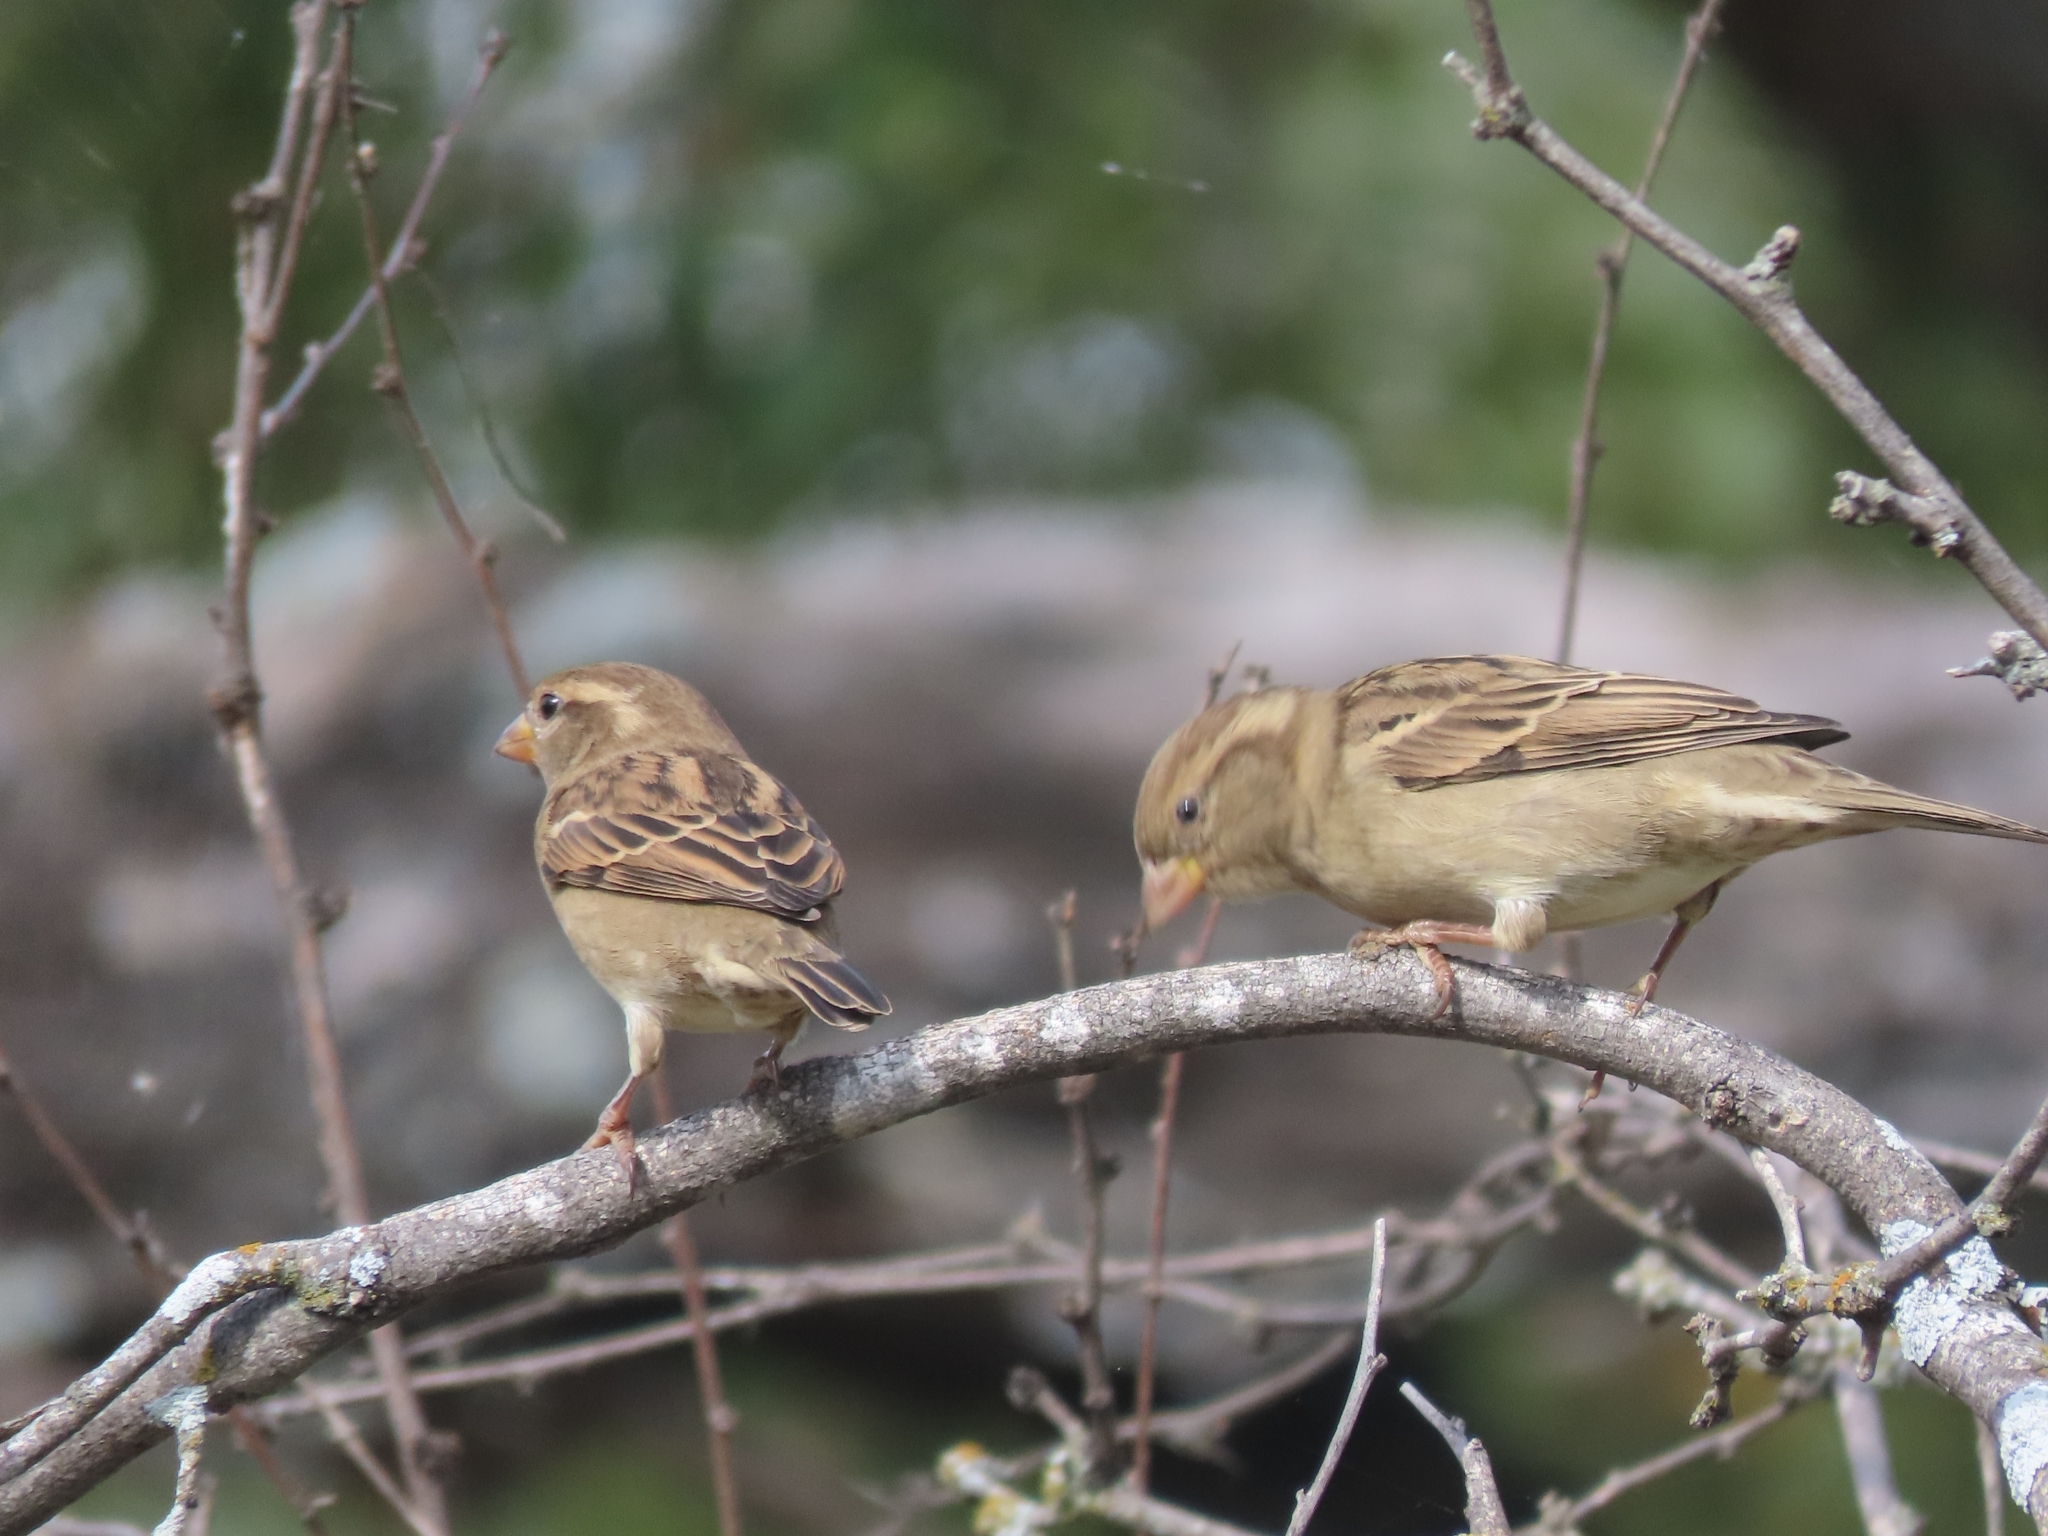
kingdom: Animalia
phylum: Chordata
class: Aves
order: Passeriformes
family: Passeridae
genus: Passer
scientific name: Passer domesticus
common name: House sparrow
